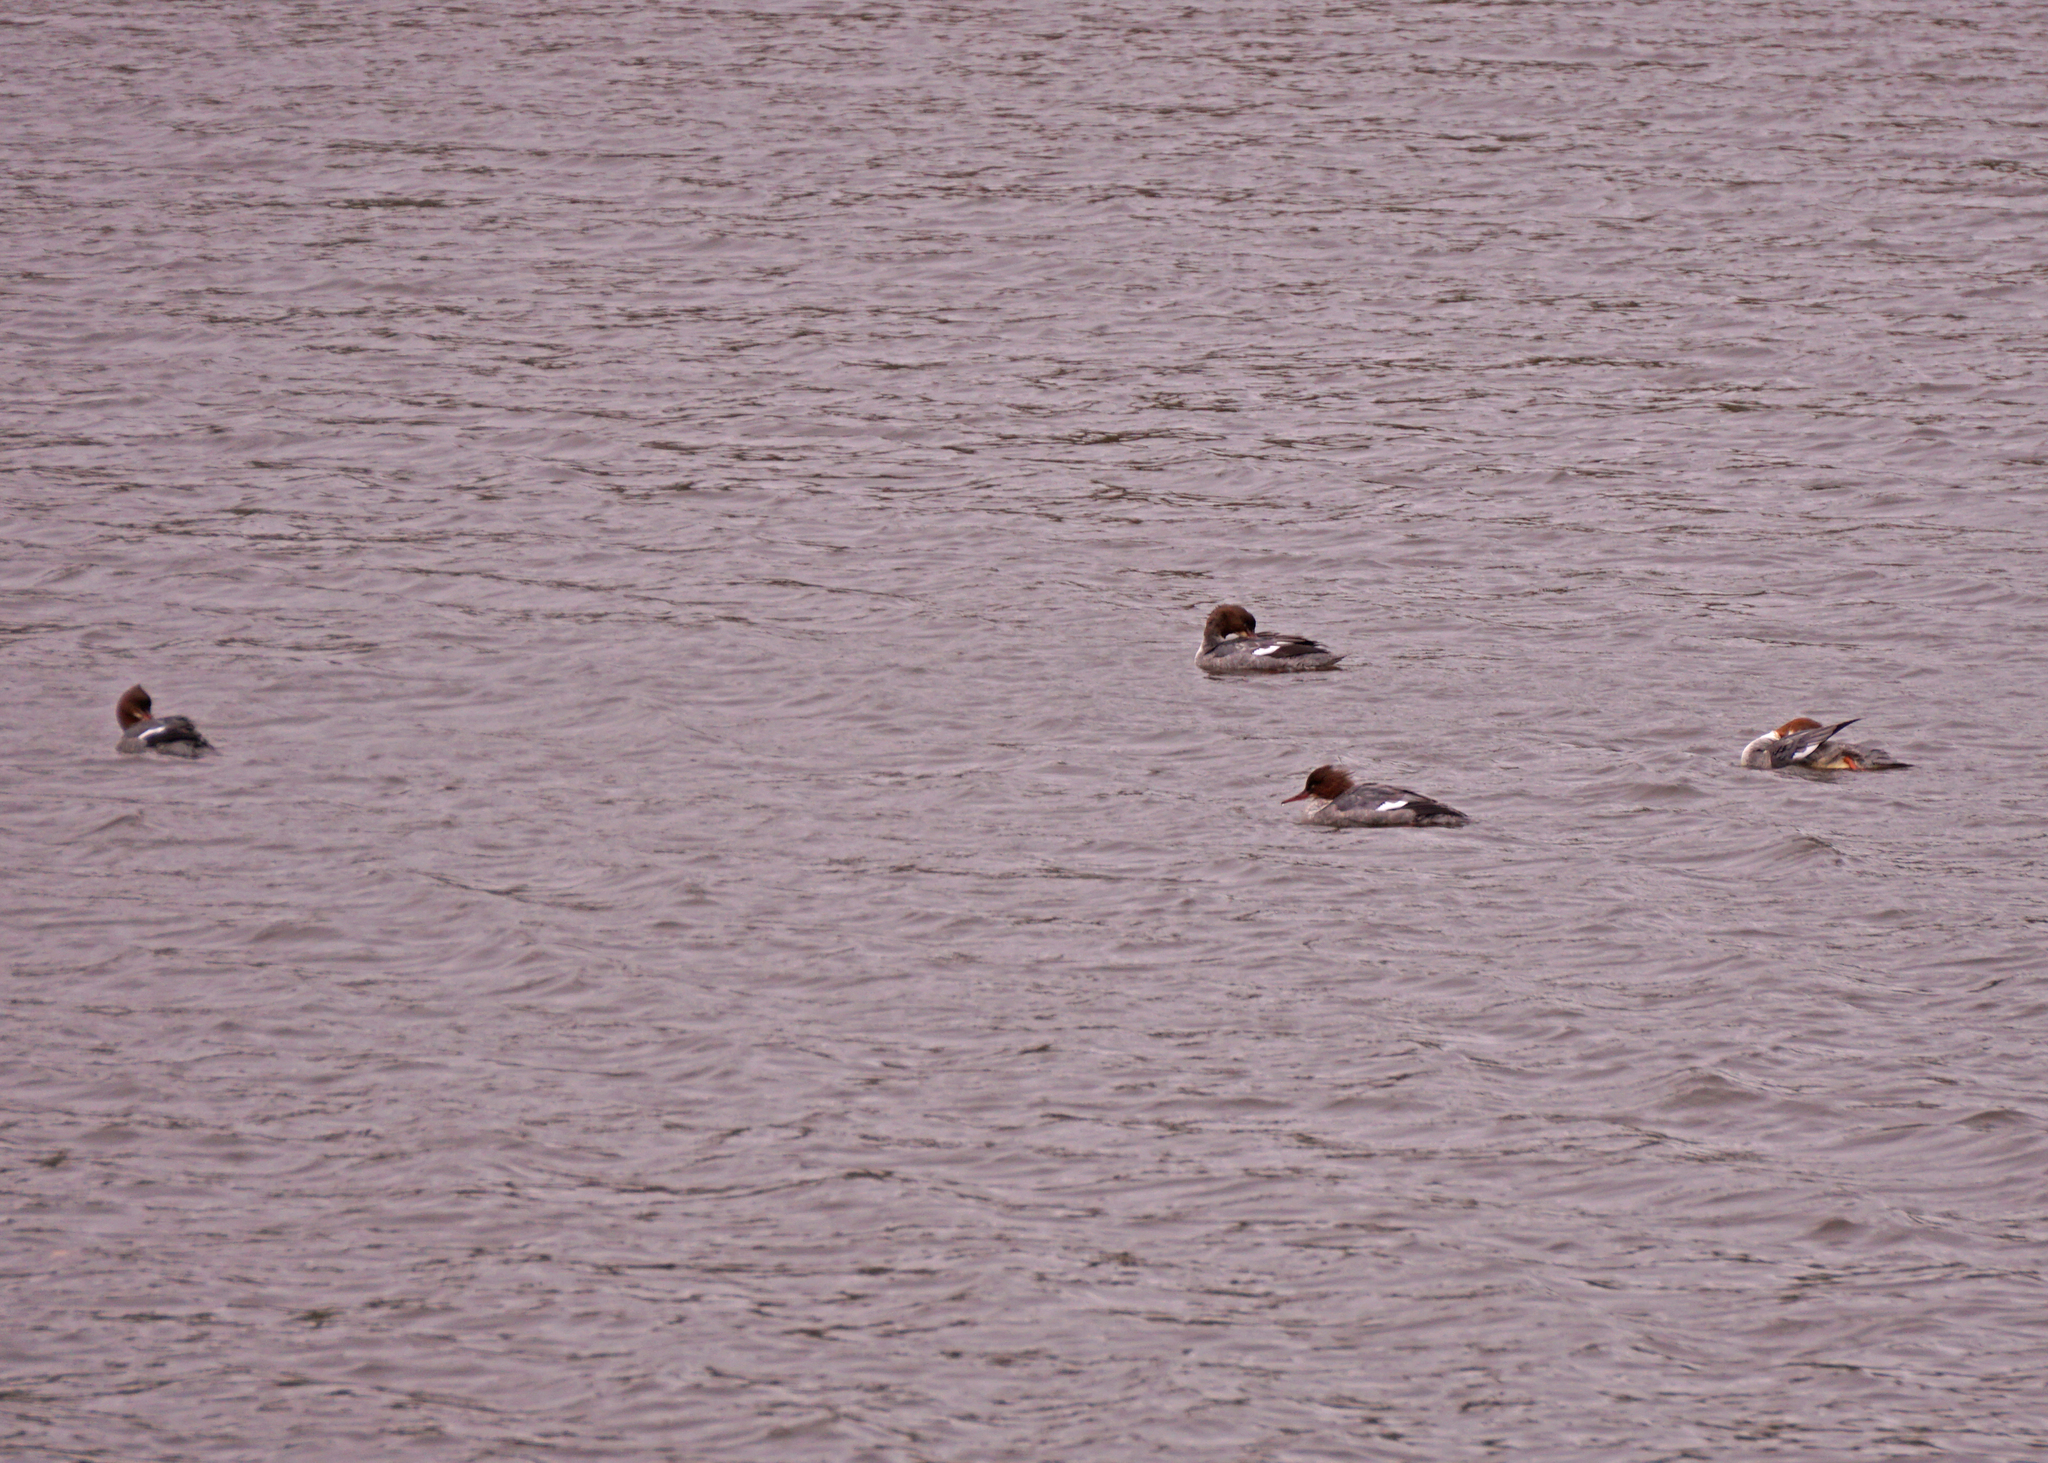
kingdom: Animalia
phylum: Chordata
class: Aves
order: Anseriformes
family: Anatidae
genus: Mergus
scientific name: Mergus merganser
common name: Common merganser
